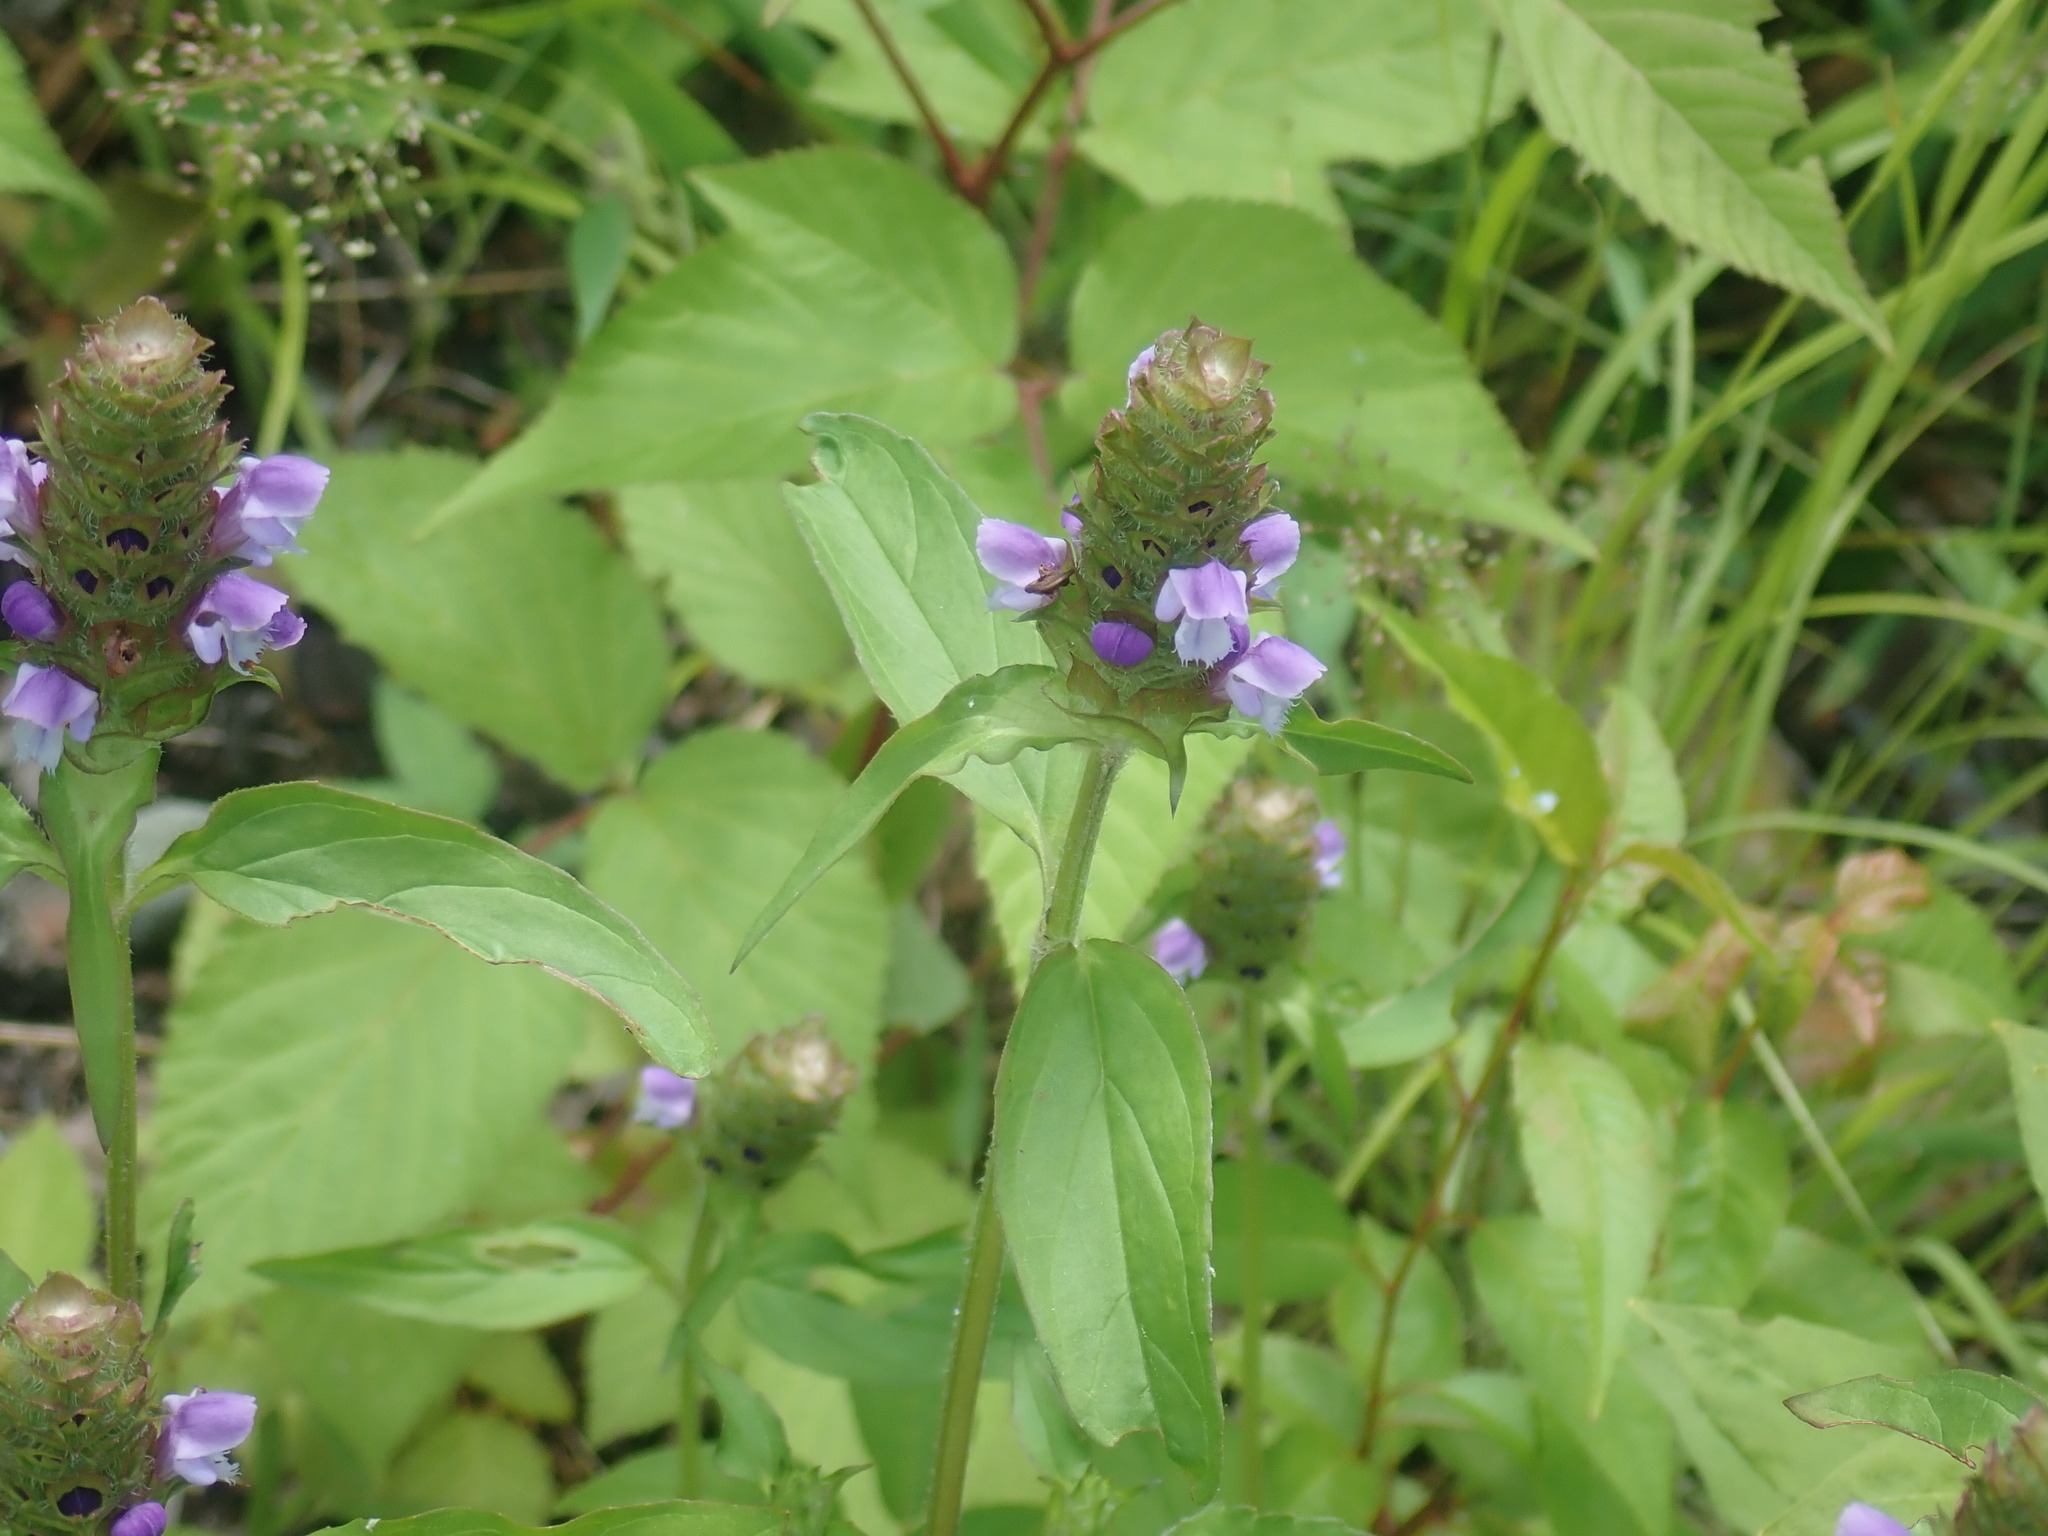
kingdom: Plantae
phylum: Tracheophyta
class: Magnoliopsida
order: Lamiales
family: Lamiaceae
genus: Prunella
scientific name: Prunella vulgaris
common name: Heal-all
